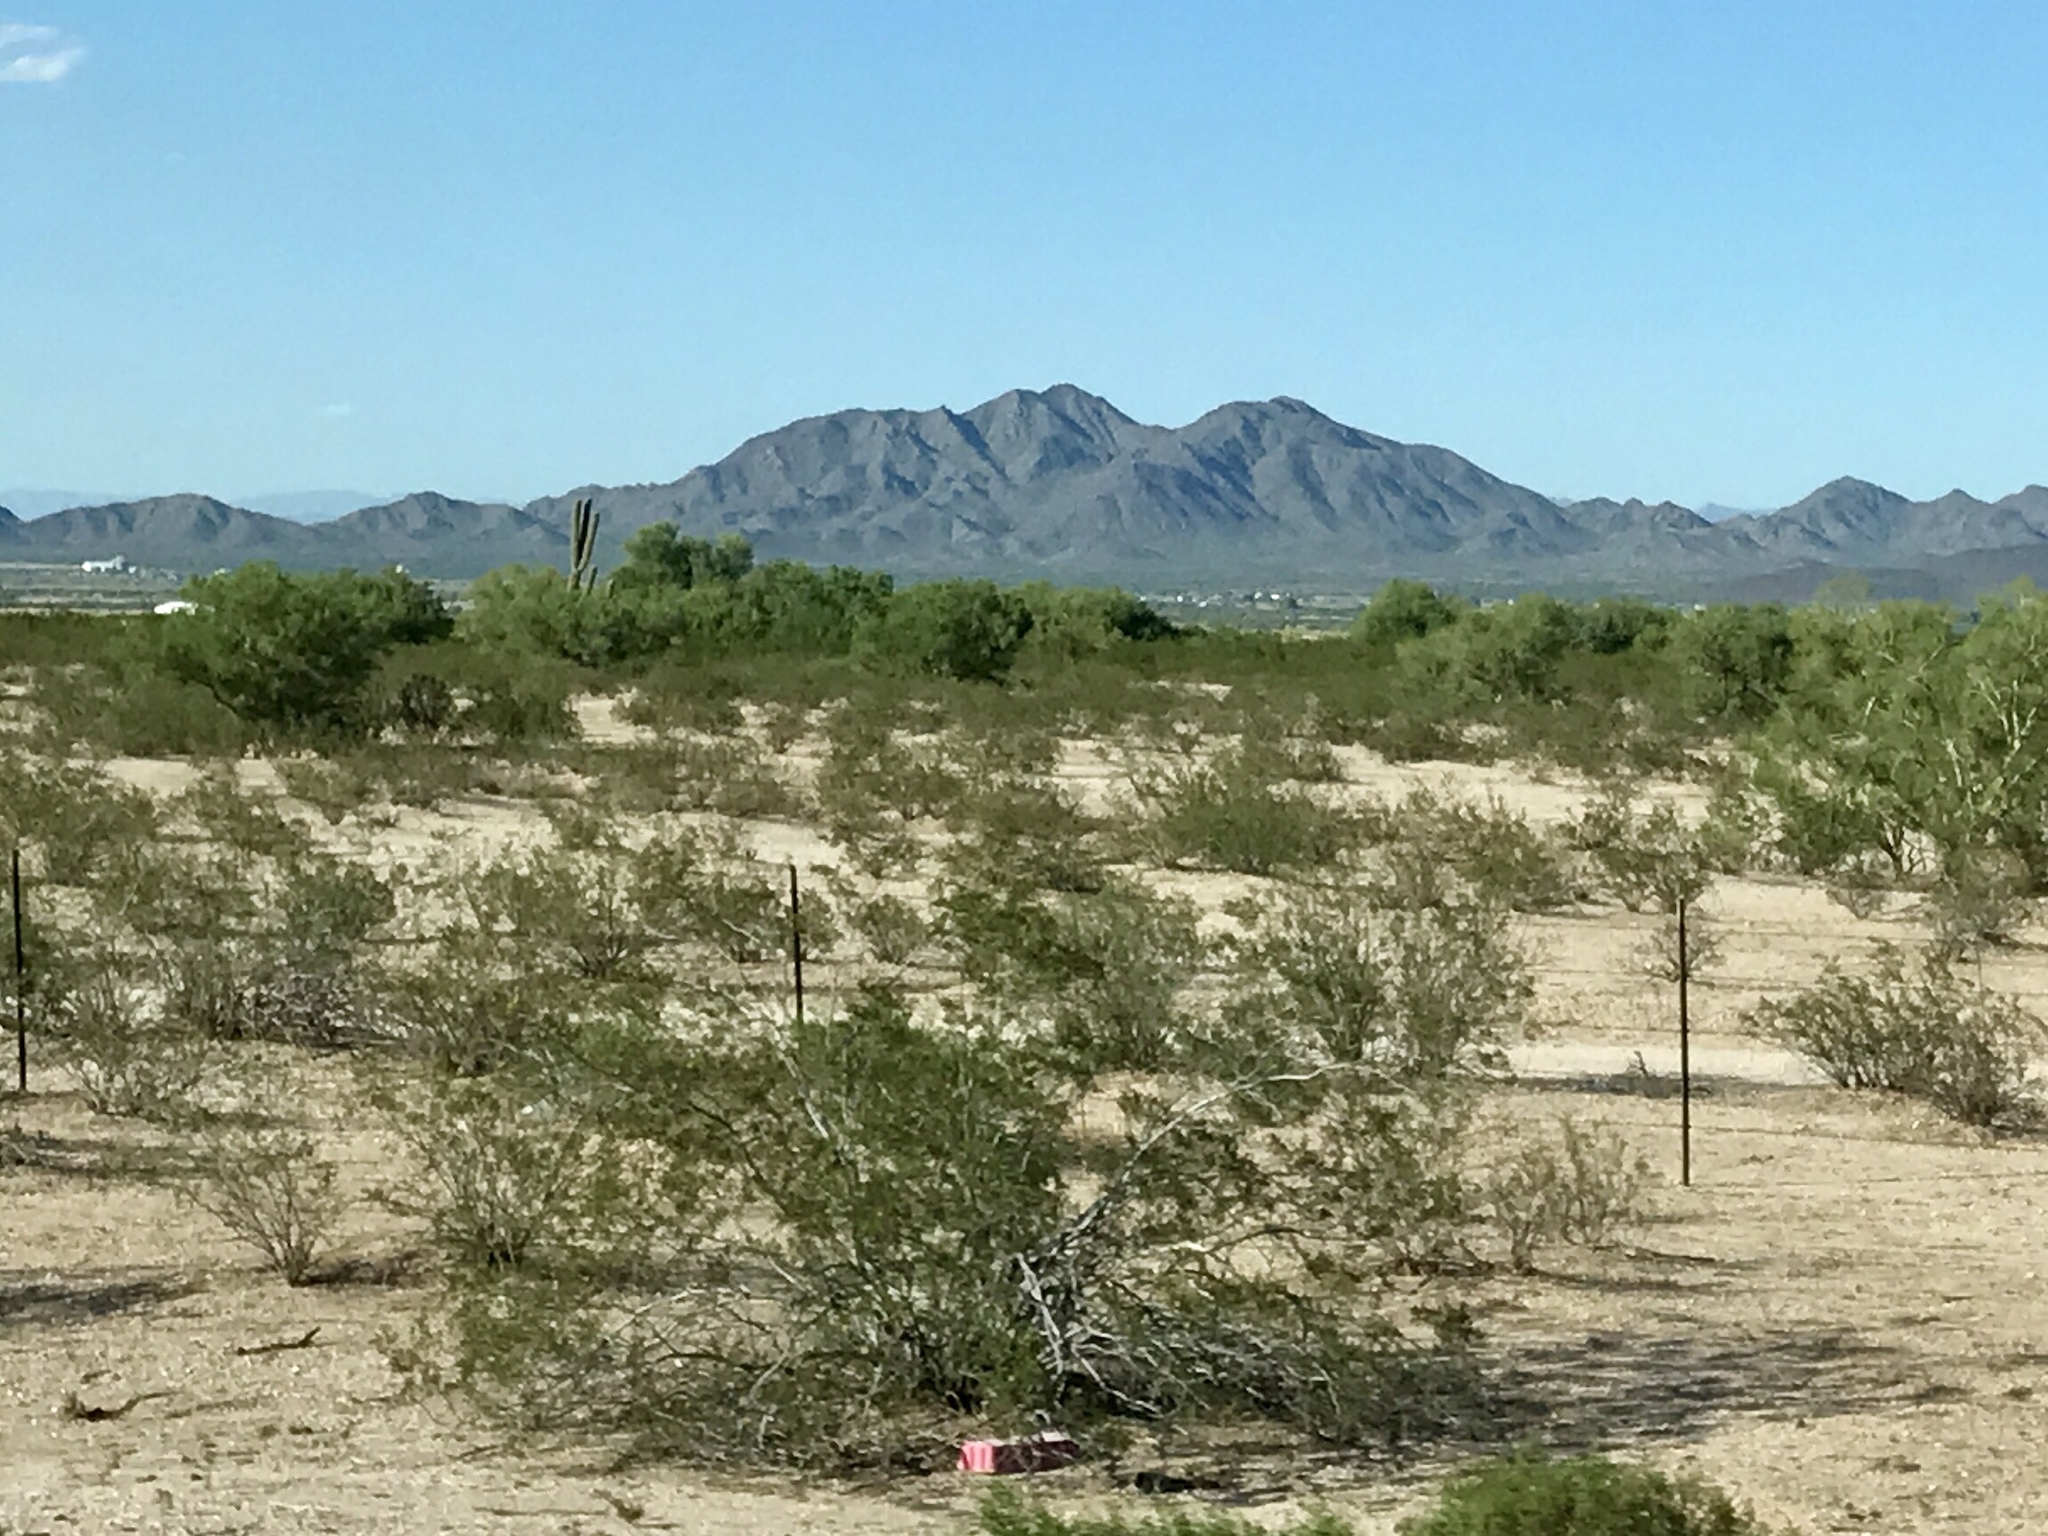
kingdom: Plantae
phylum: Tracheophyta
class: Magnoliopsida
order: Zygophyllales
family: Zygophyllaceae
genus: Larrea
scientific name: Larrea tridentata
